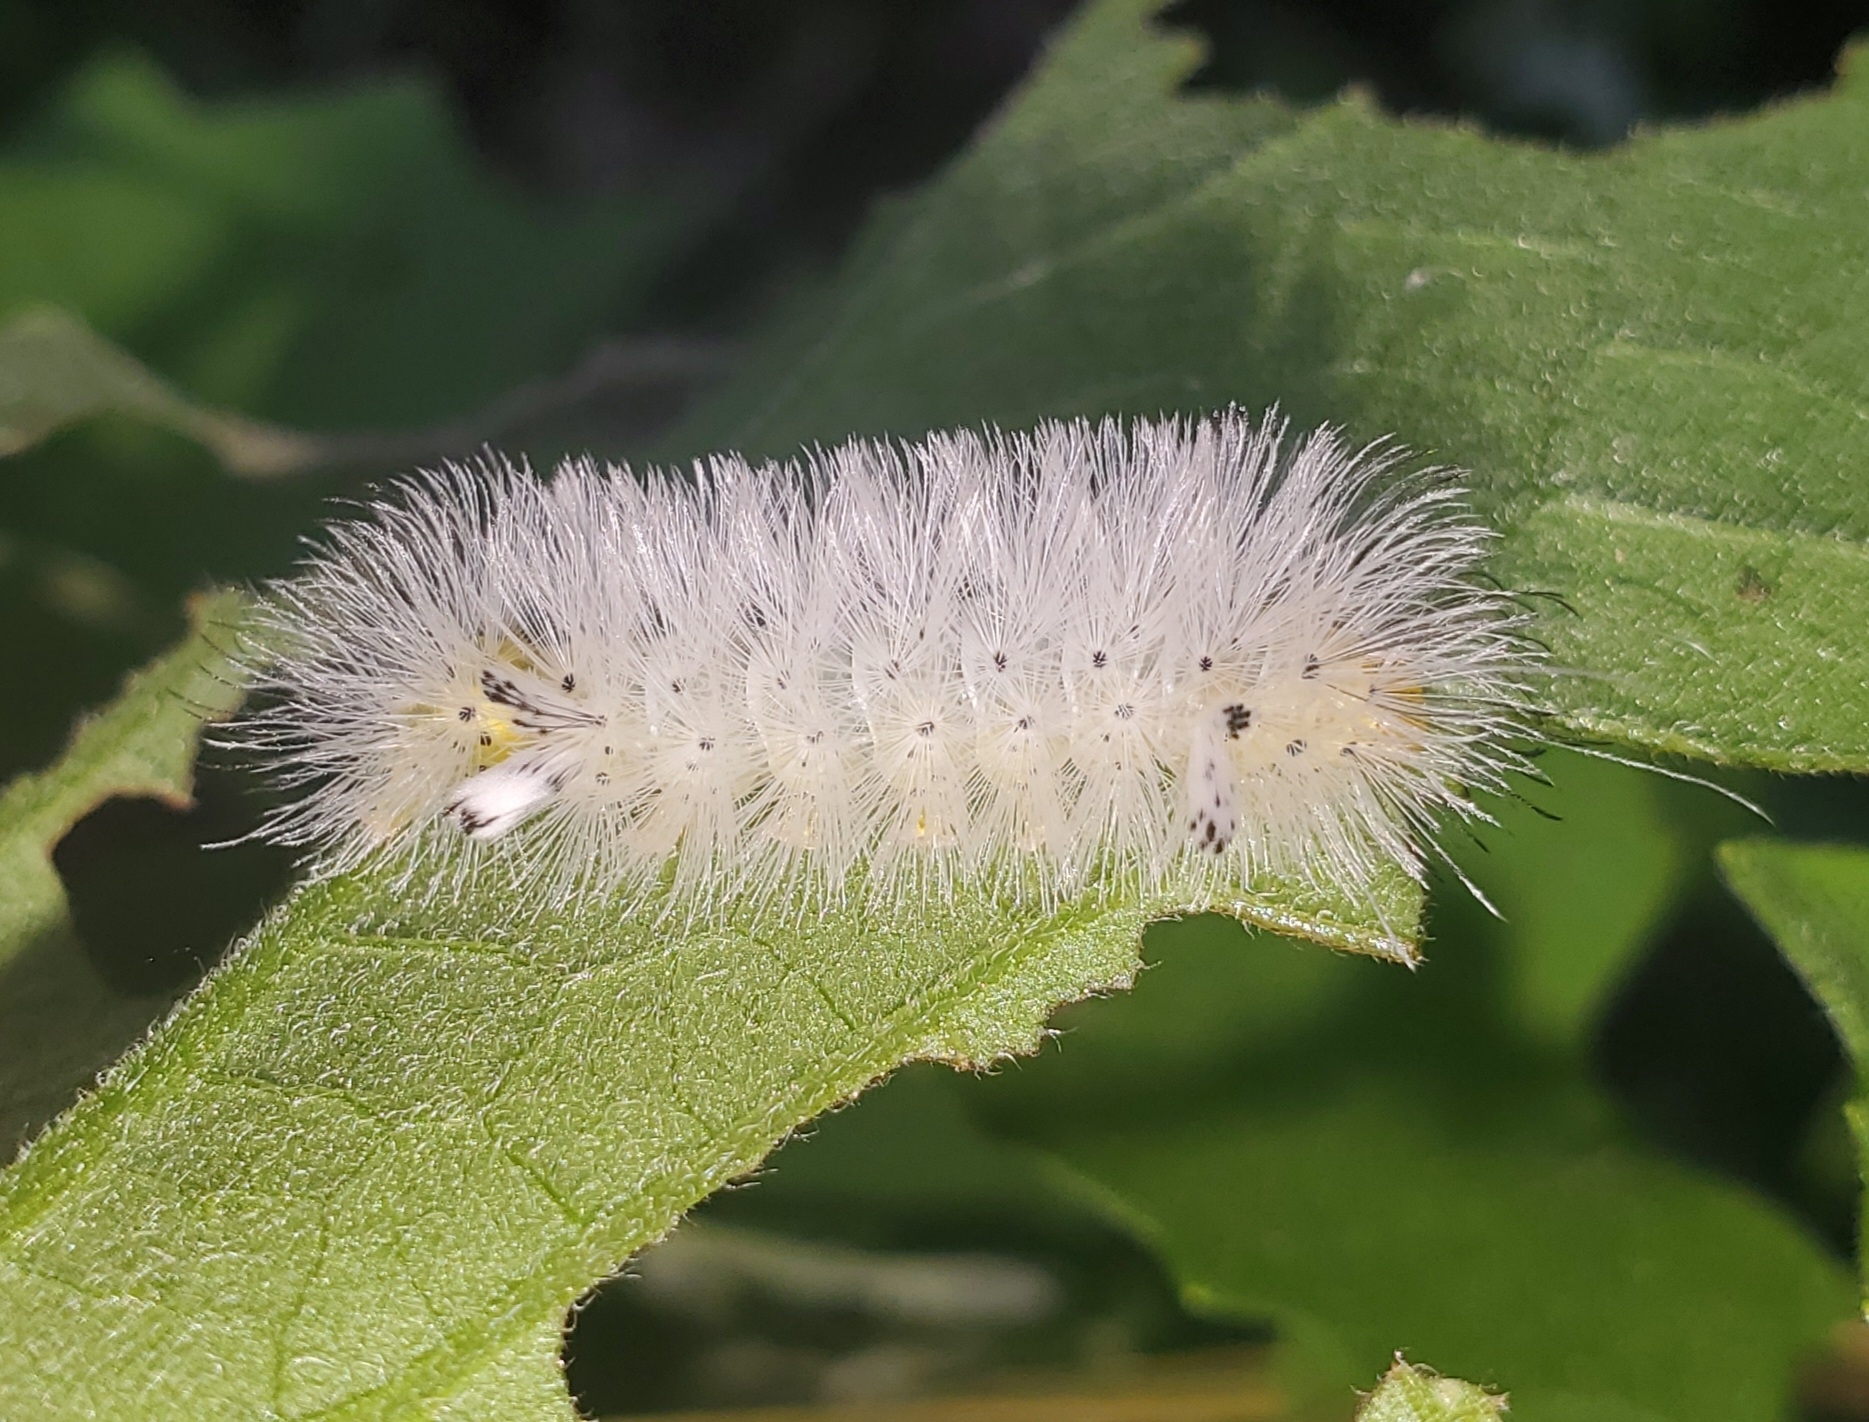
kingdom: Animalia
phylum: Arthropoda
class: Insecta
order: Lepidoptera
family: Erebidae
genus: Cosmosoma
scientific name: Cosmosoma myrodora
